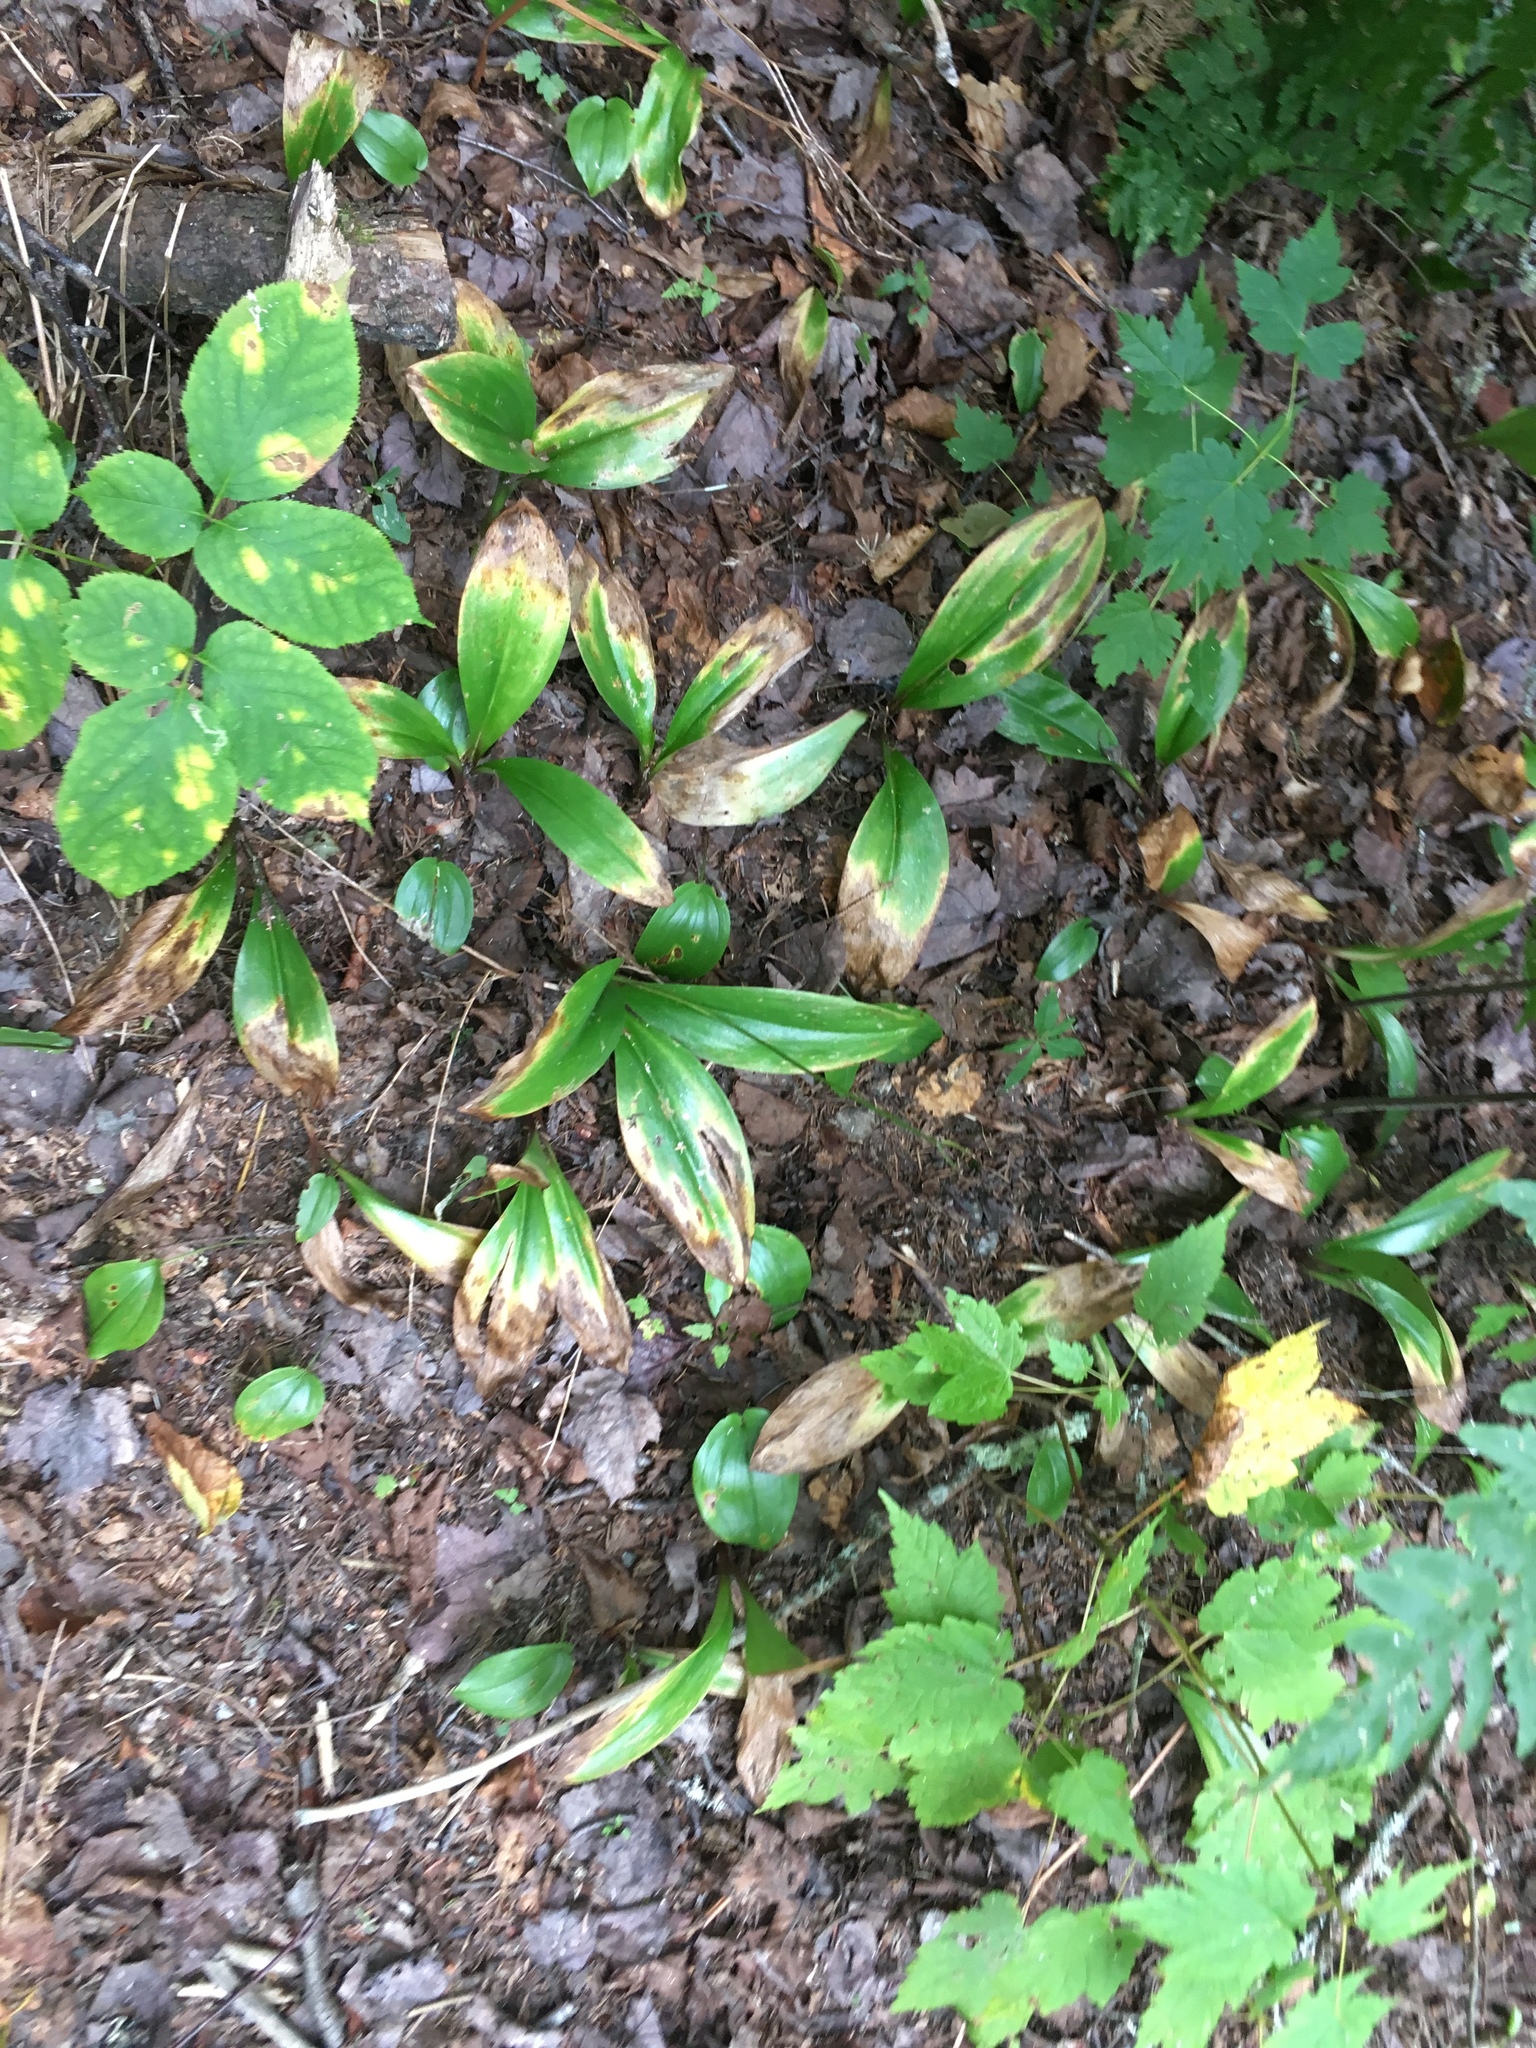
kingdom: Plantae
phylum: Tracheophyta
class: Liliopsida
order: Liliales
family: Liliaceae
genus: Clintonia
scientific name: Clintonia borealis
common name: Yellow clintonia
